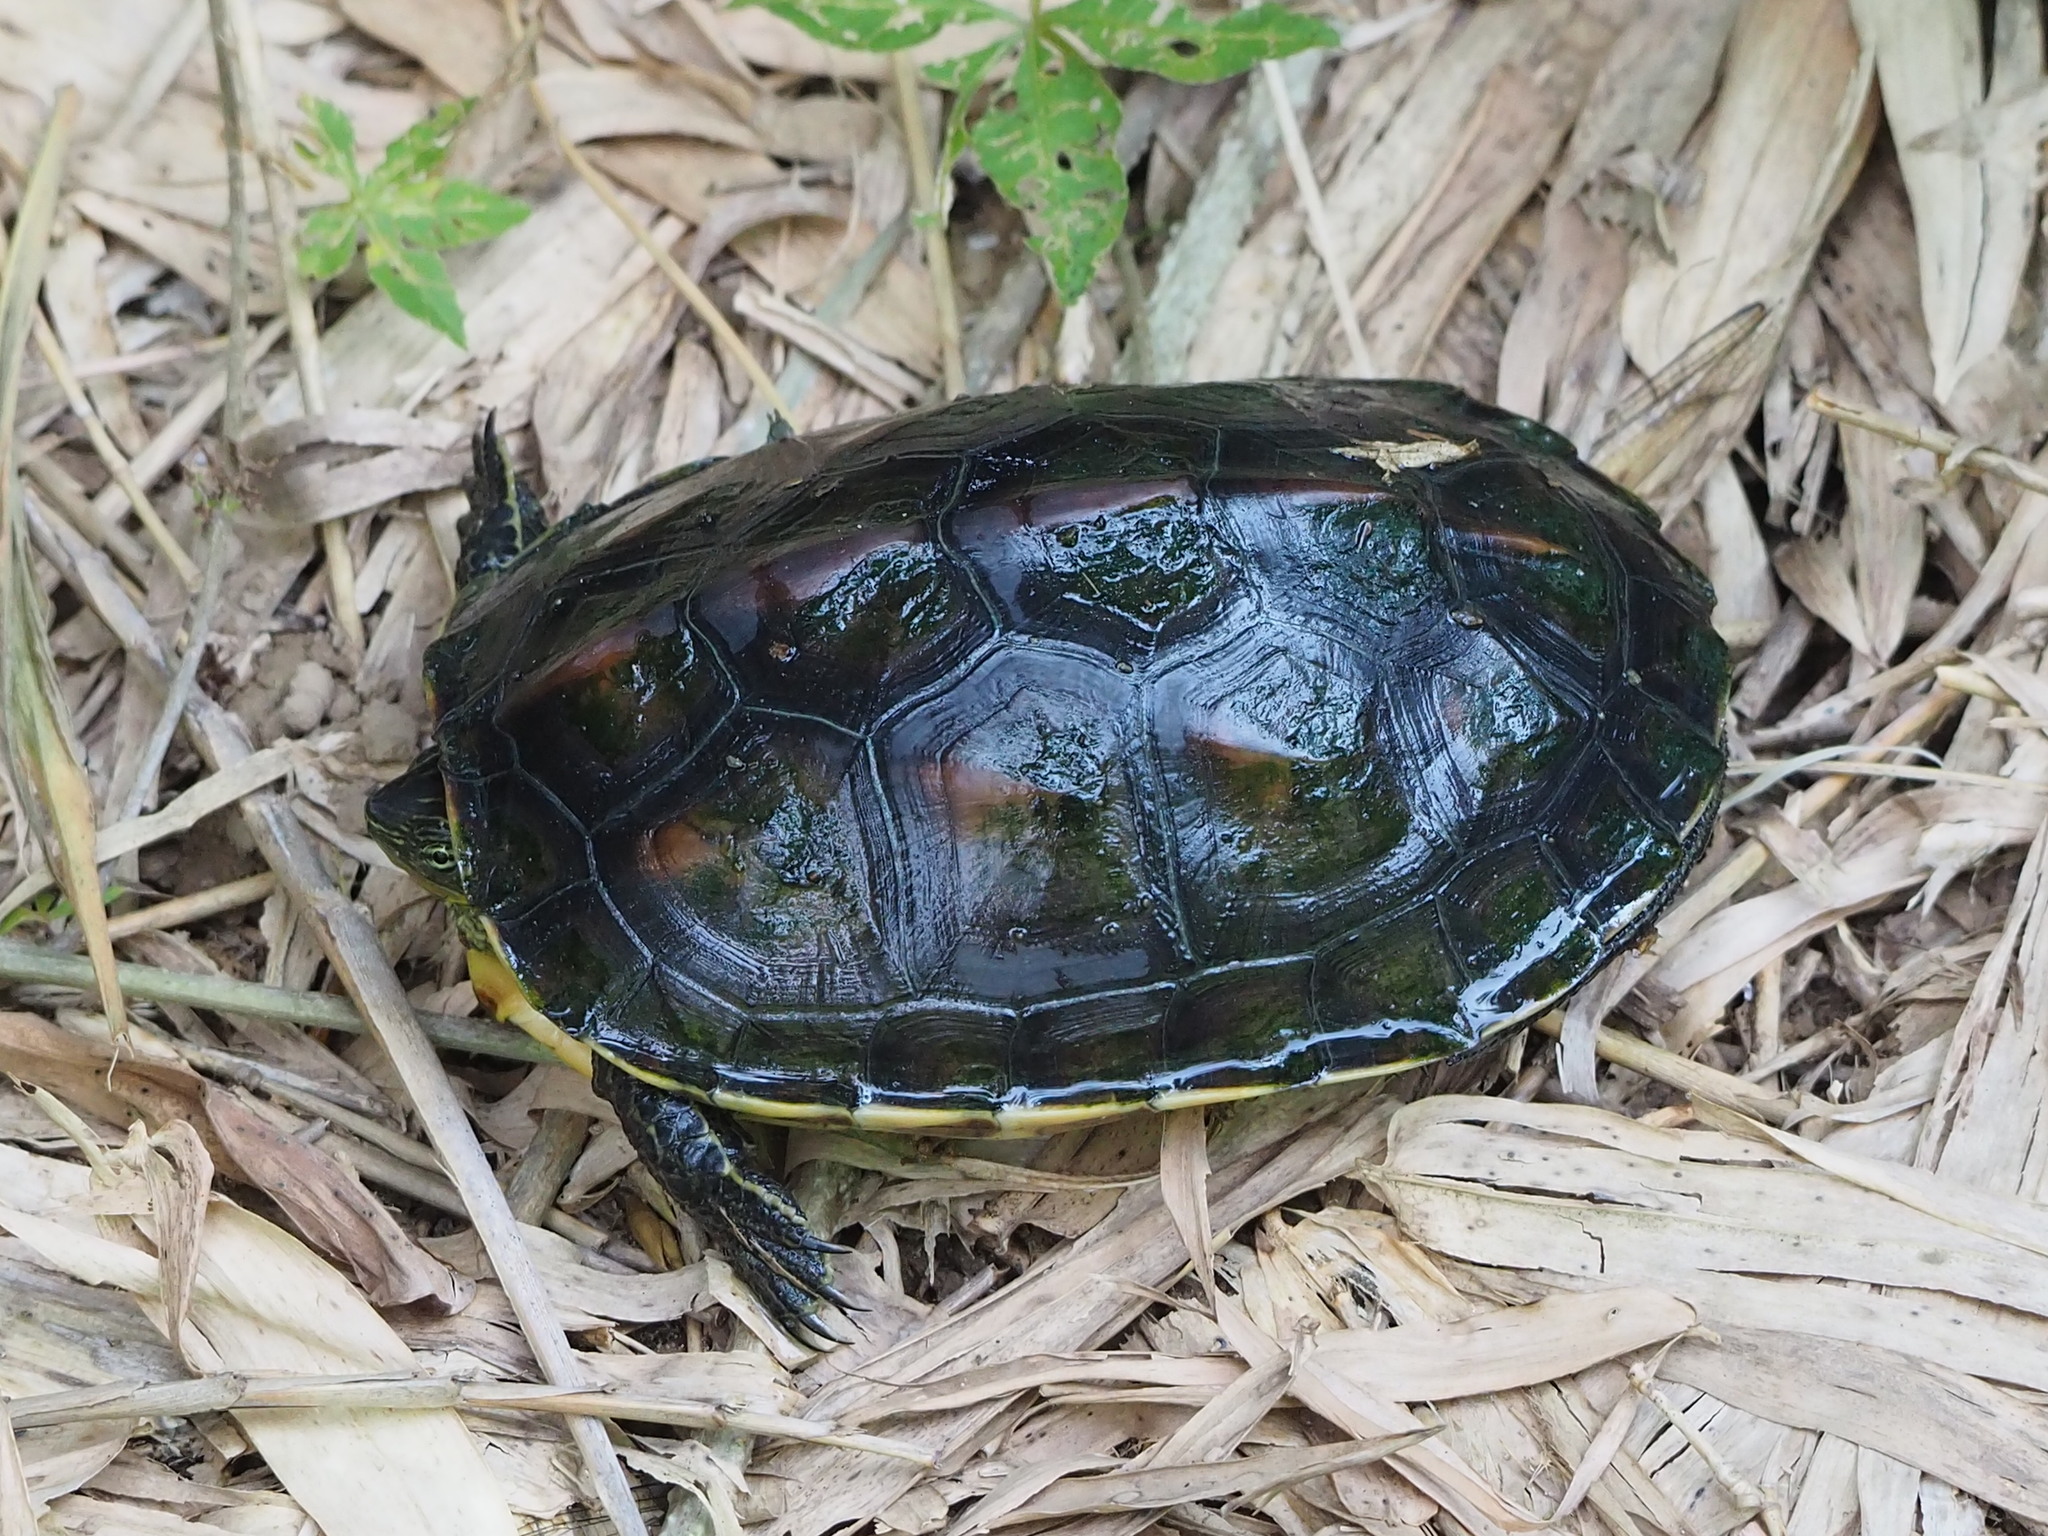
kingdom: Animalia
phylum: Chordata
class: Testudines
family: Geoemydidae
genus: Mauremys
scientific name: Mauremys sinensis
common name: Chinese stripe-necked turtle
